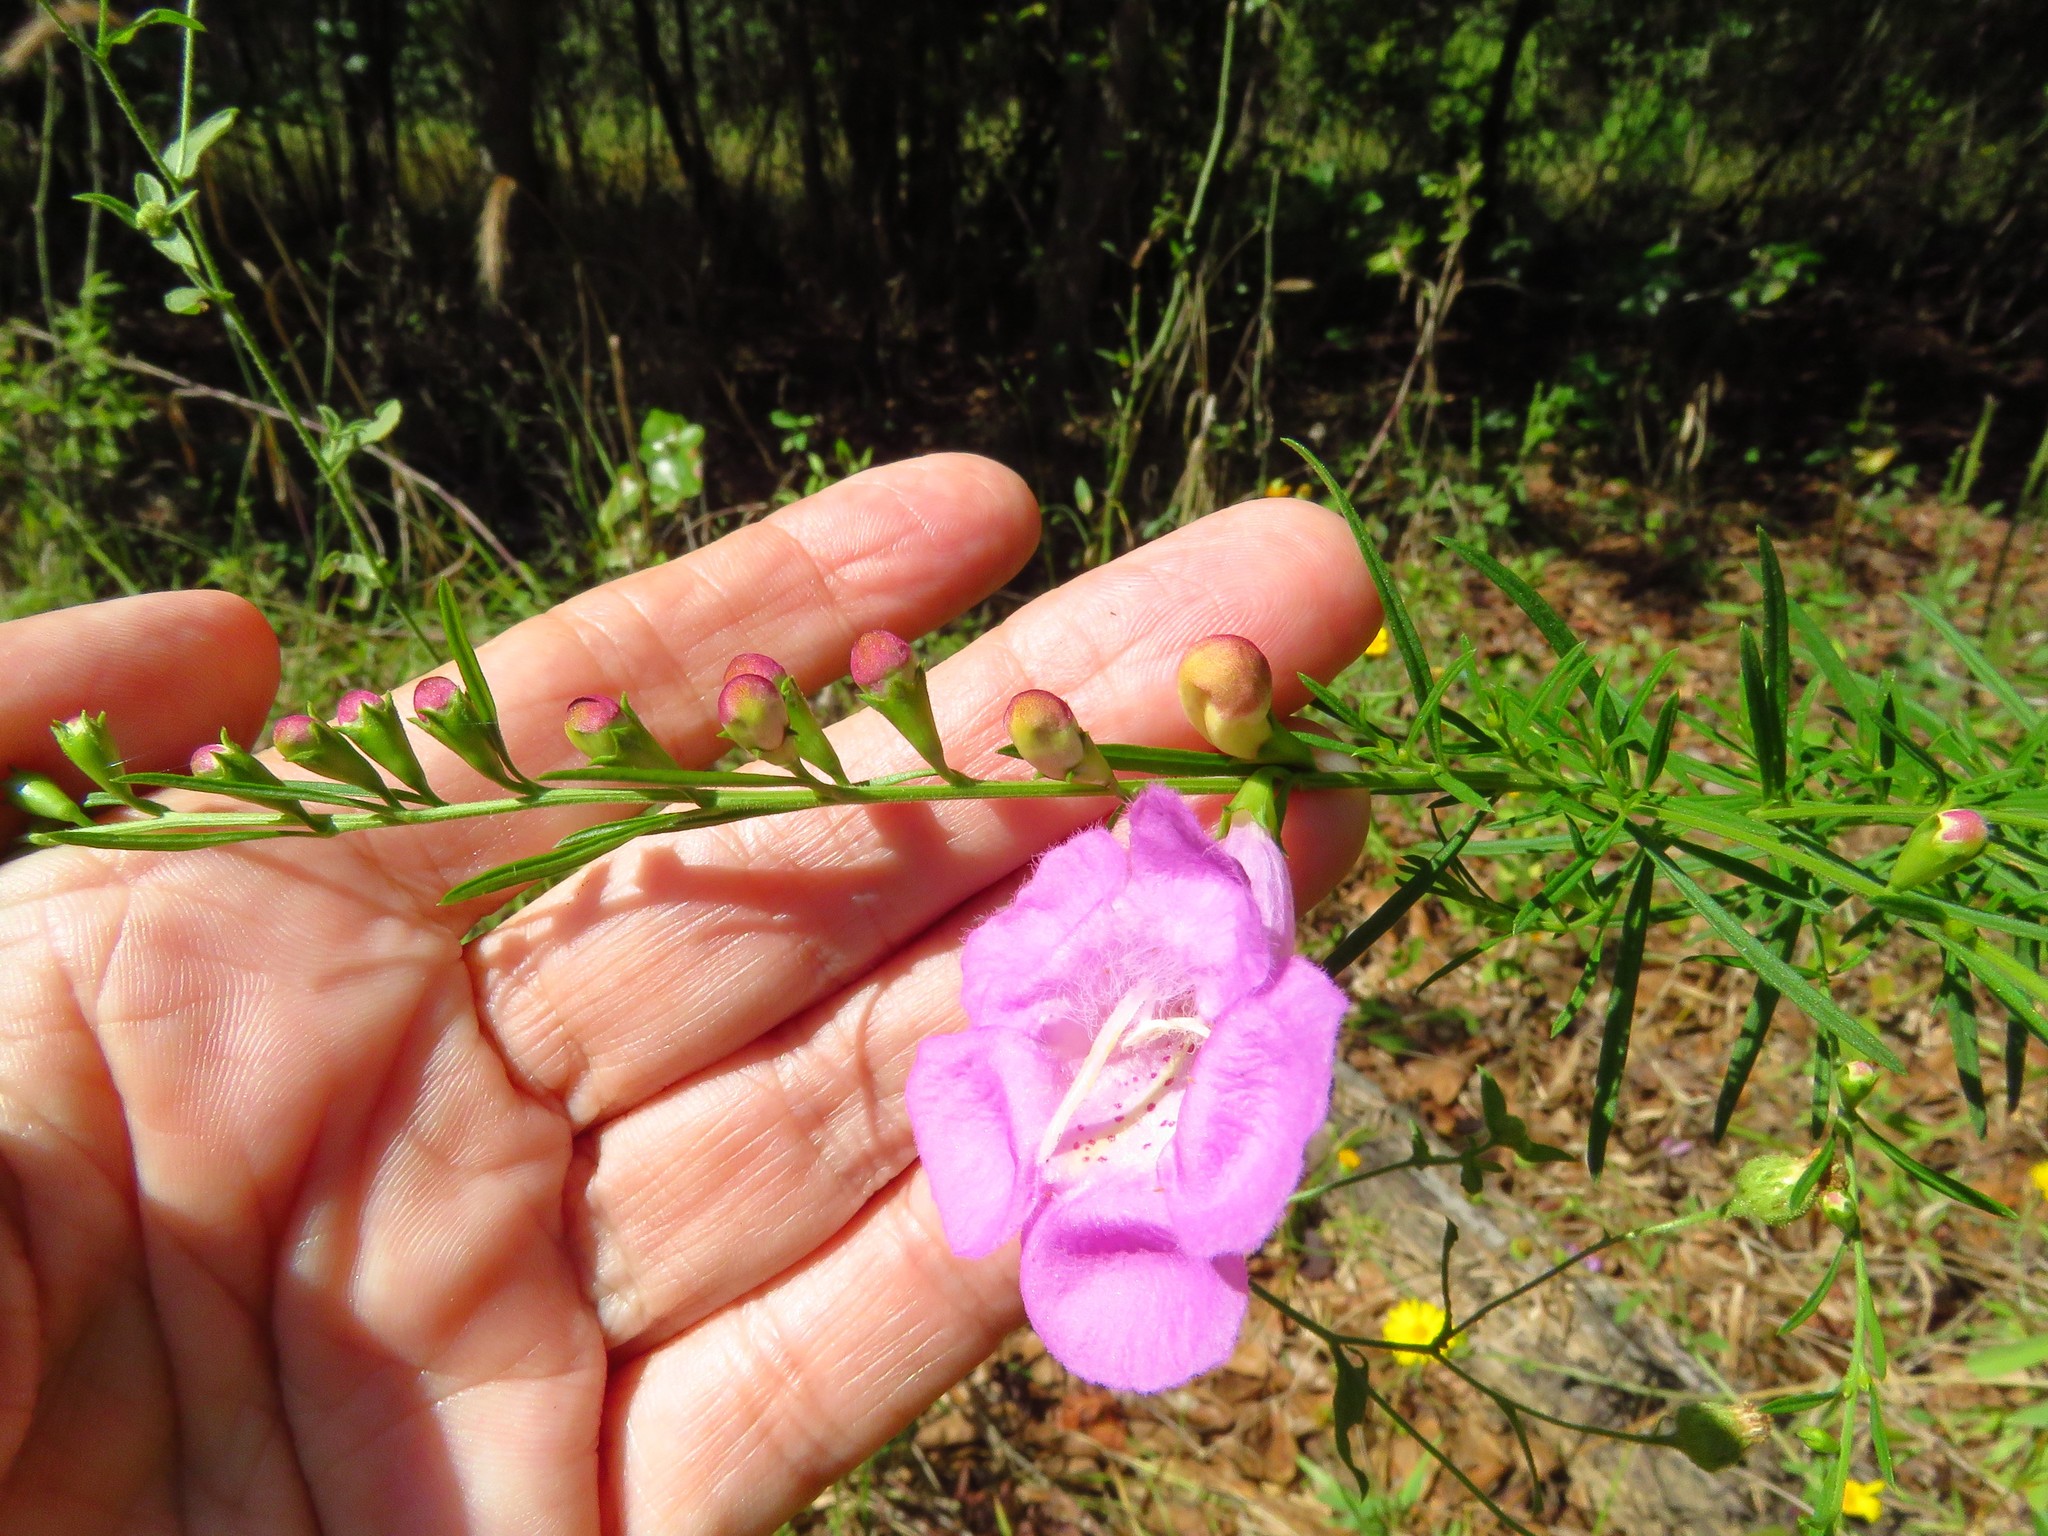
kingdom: Plantae
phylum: Tracheophyta
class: Magnoliopsida
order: Lamiales
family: Orobanchaceae
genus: Agalinis
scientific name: Agalinis fasciculata
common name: Beach false foxglove
